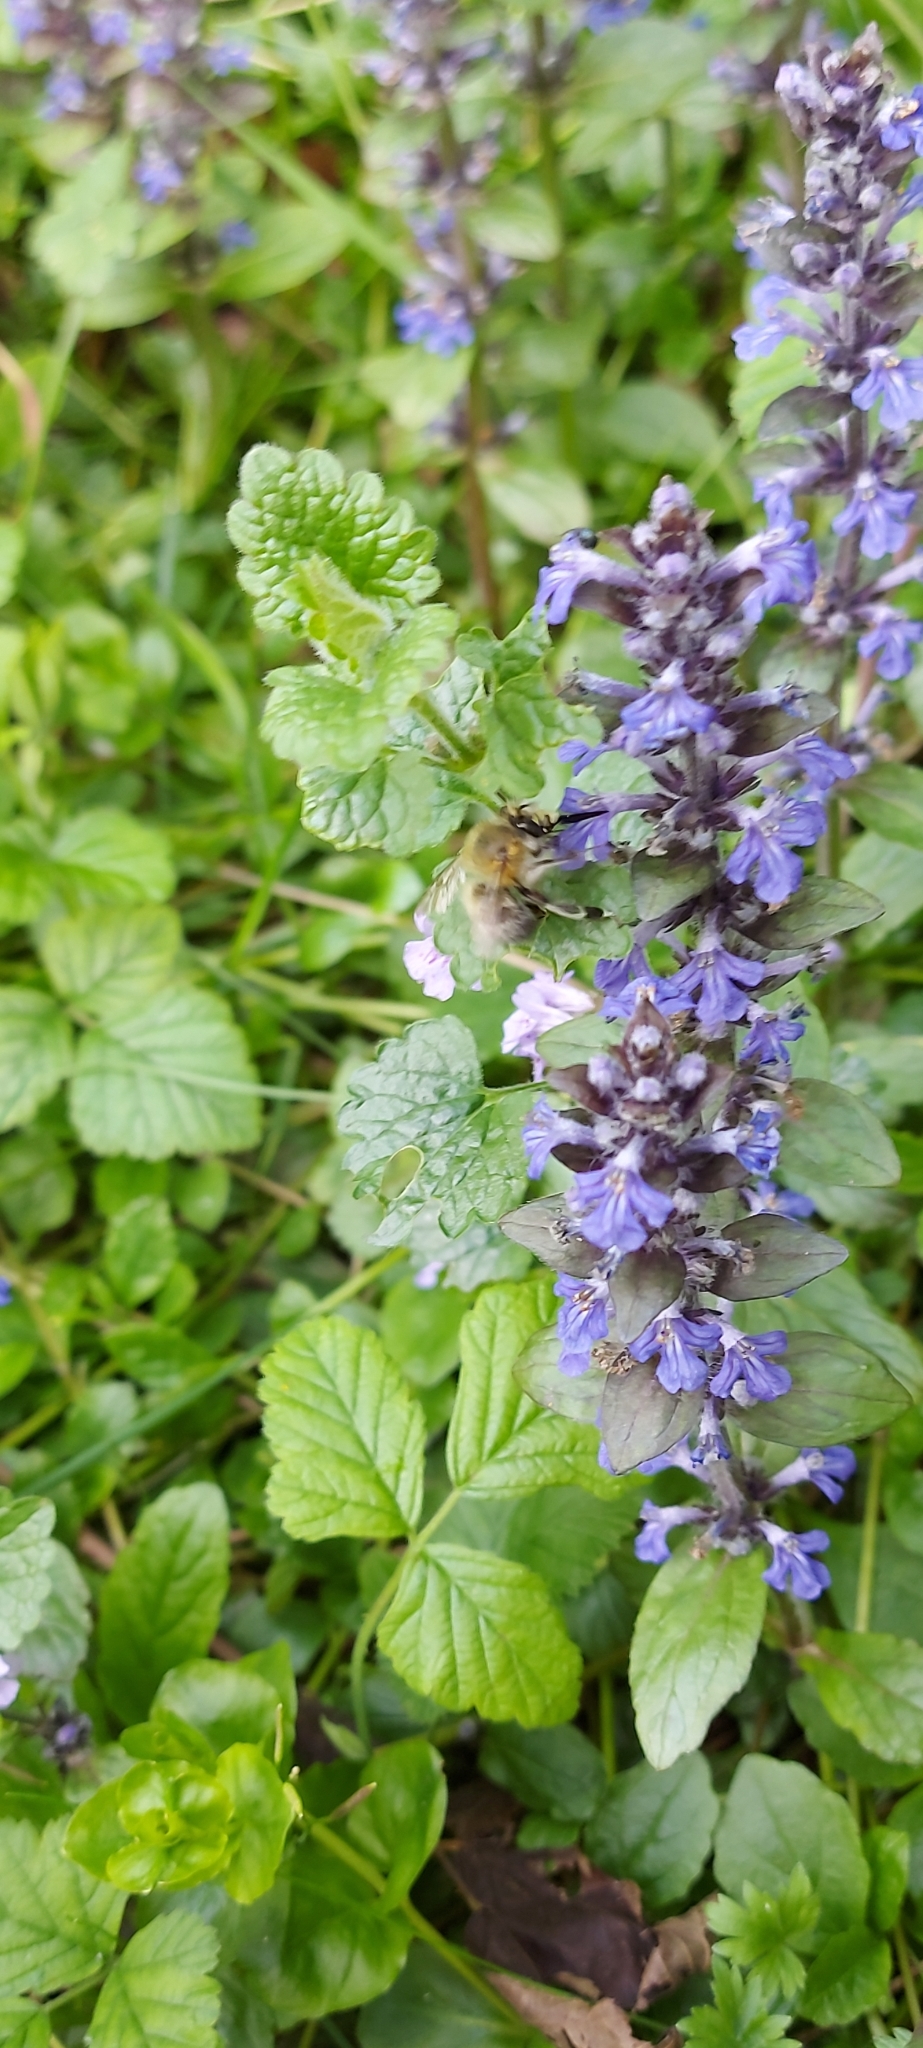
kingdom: Animalia
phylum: Arthropoda
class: Insecta
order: Hymenoptera
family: Apidae
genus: Anthophora
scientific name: Anthophora plumipes
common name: Hairy-footed flower bee
